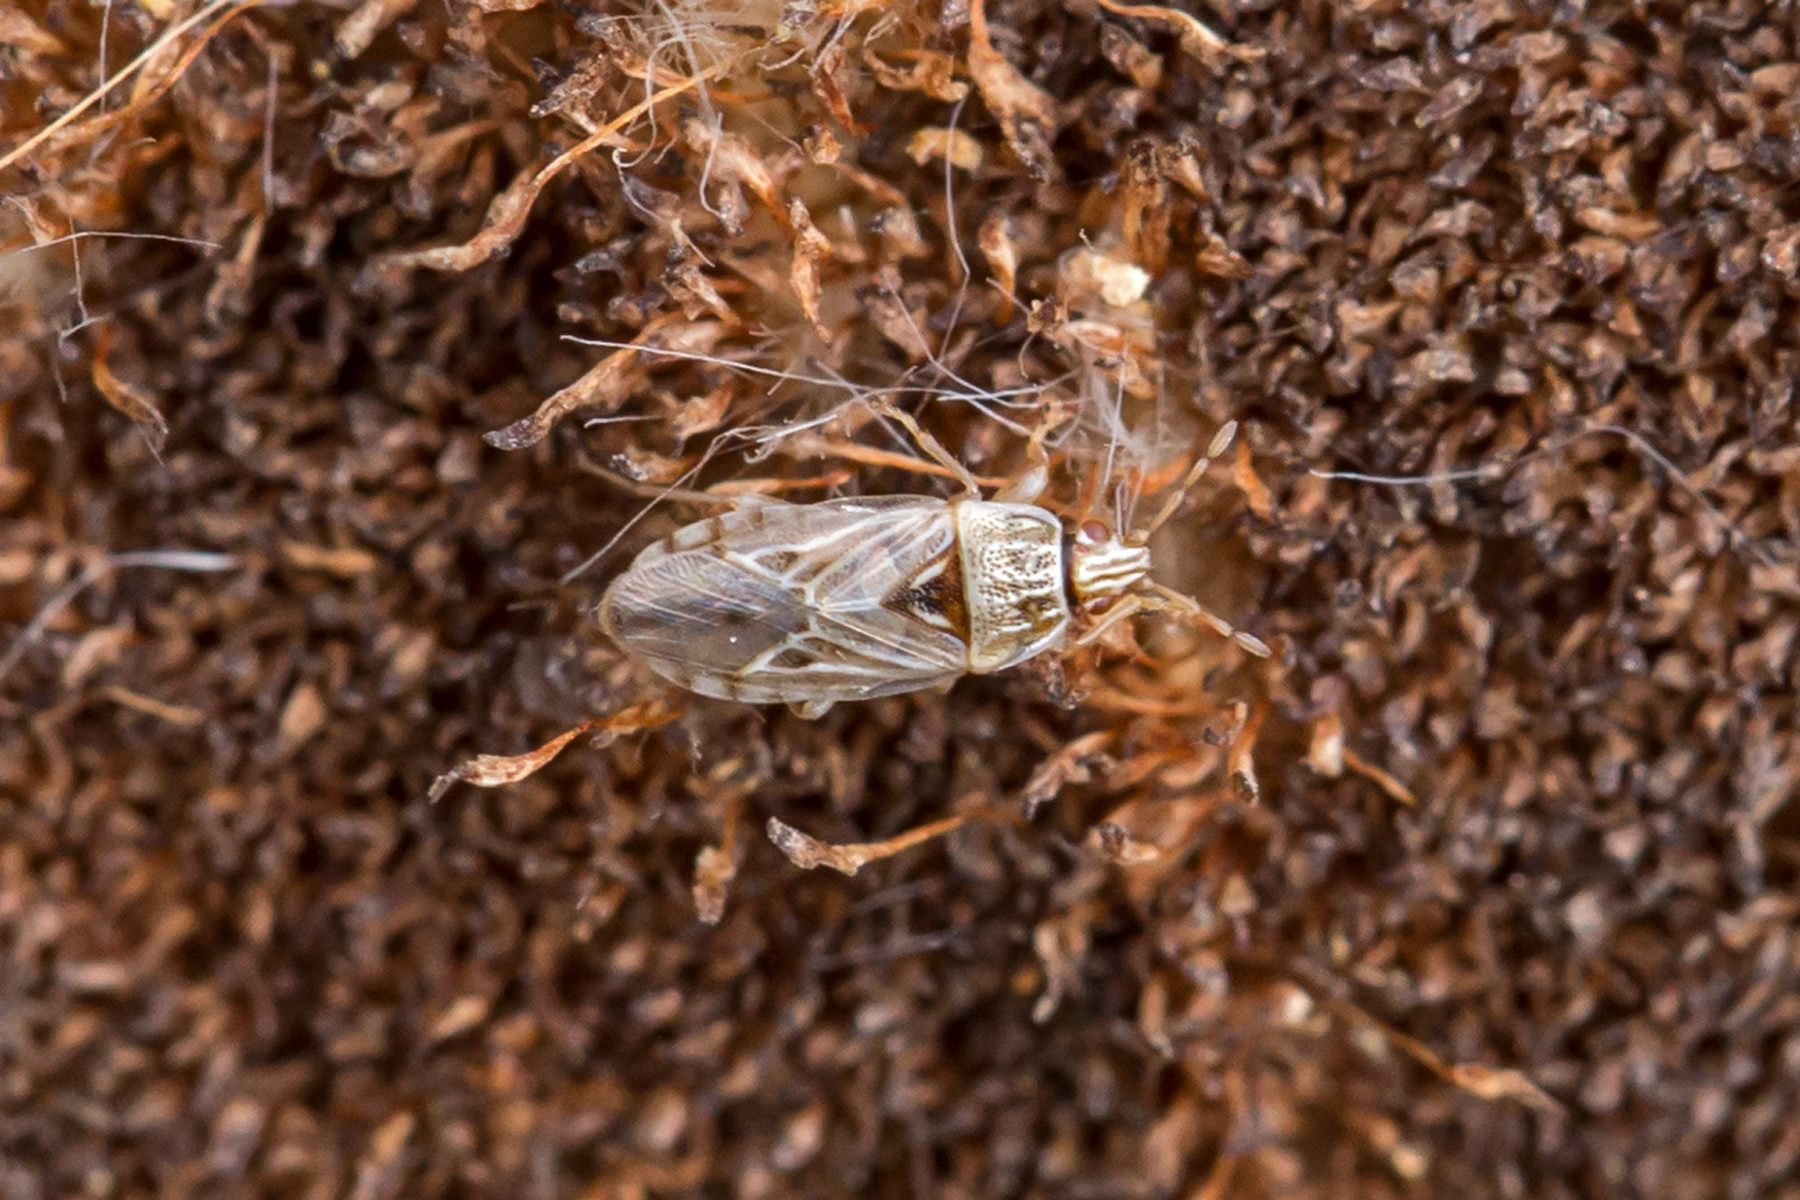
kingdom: Animalia
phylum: Arthropoda
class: Insecta
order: Hemiptera
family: Artheneidae
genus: Holcocranum
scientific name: Holcocranum saturejae
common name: Cattail bug
